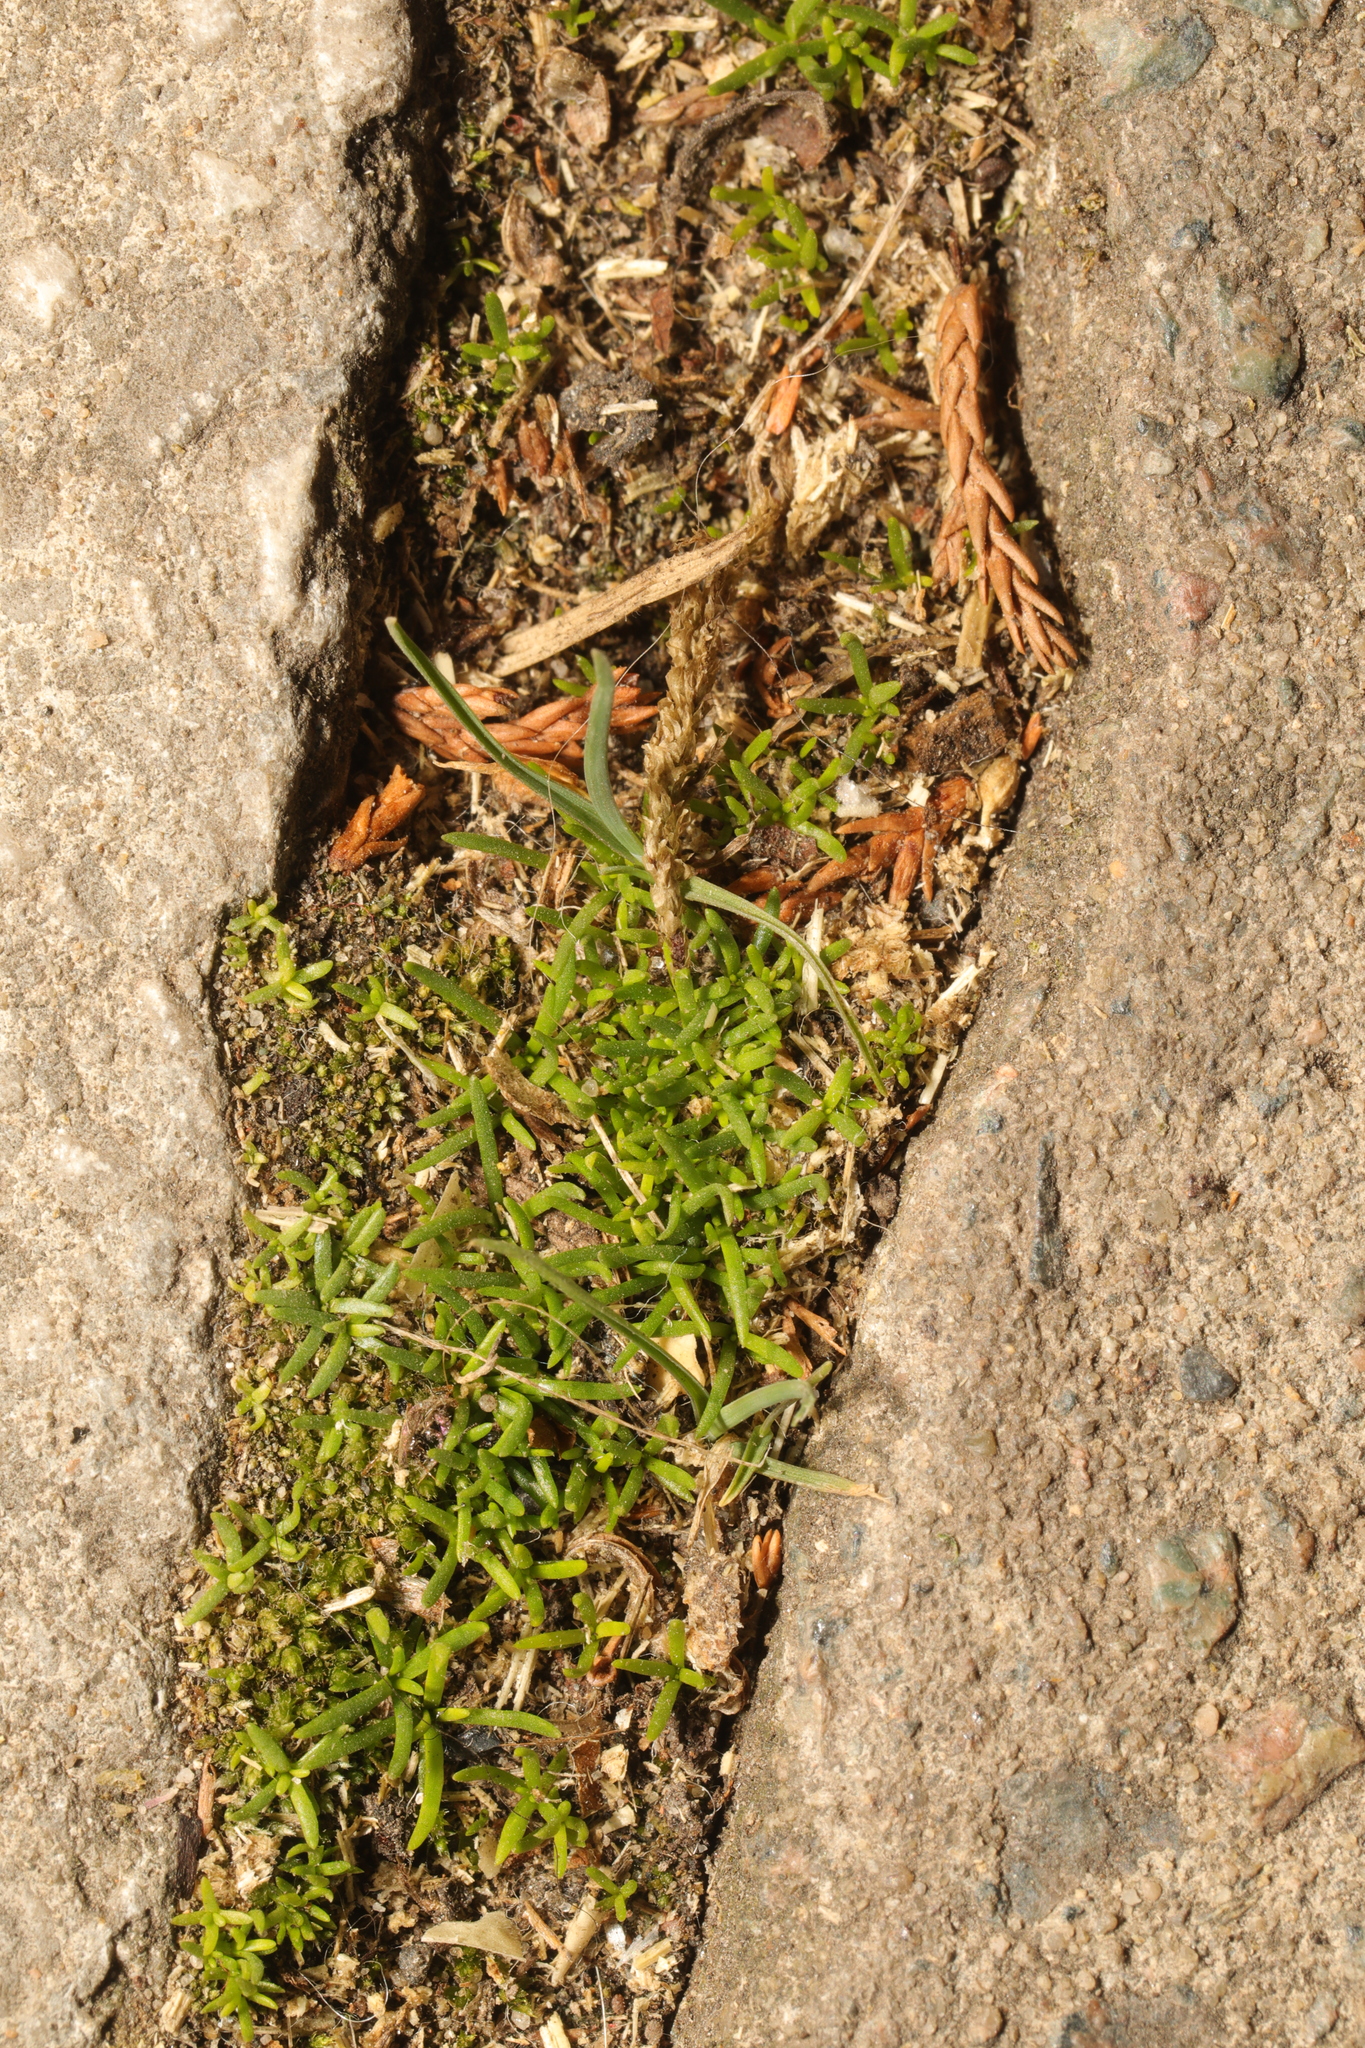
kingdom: Plantae
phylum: Tracheophyta
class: Magnoliopsida
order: Caryophyllales
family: Caryophyllaceae
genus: Sagina
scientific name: Sagina procumbens
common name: Procumbent pearlwort
